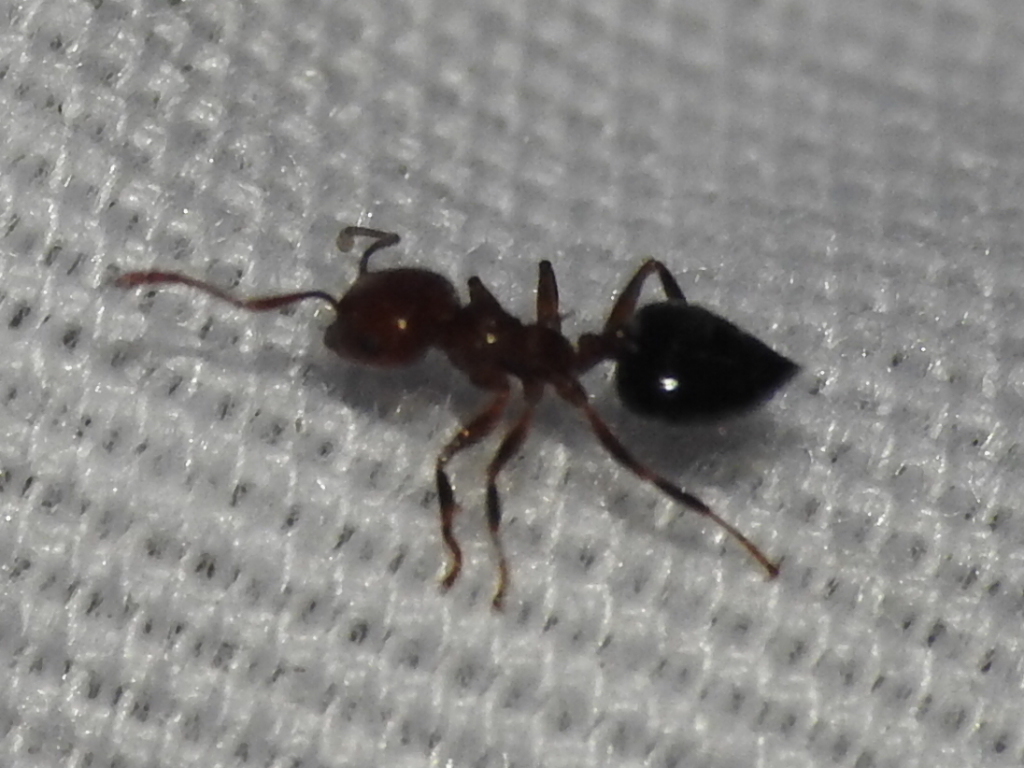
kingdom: Animalia
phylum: Arthropoda
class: Insecta
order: Hymenoptera
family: Formicidae
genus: Crematogaster
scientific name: Crematogaster laeviuscula
